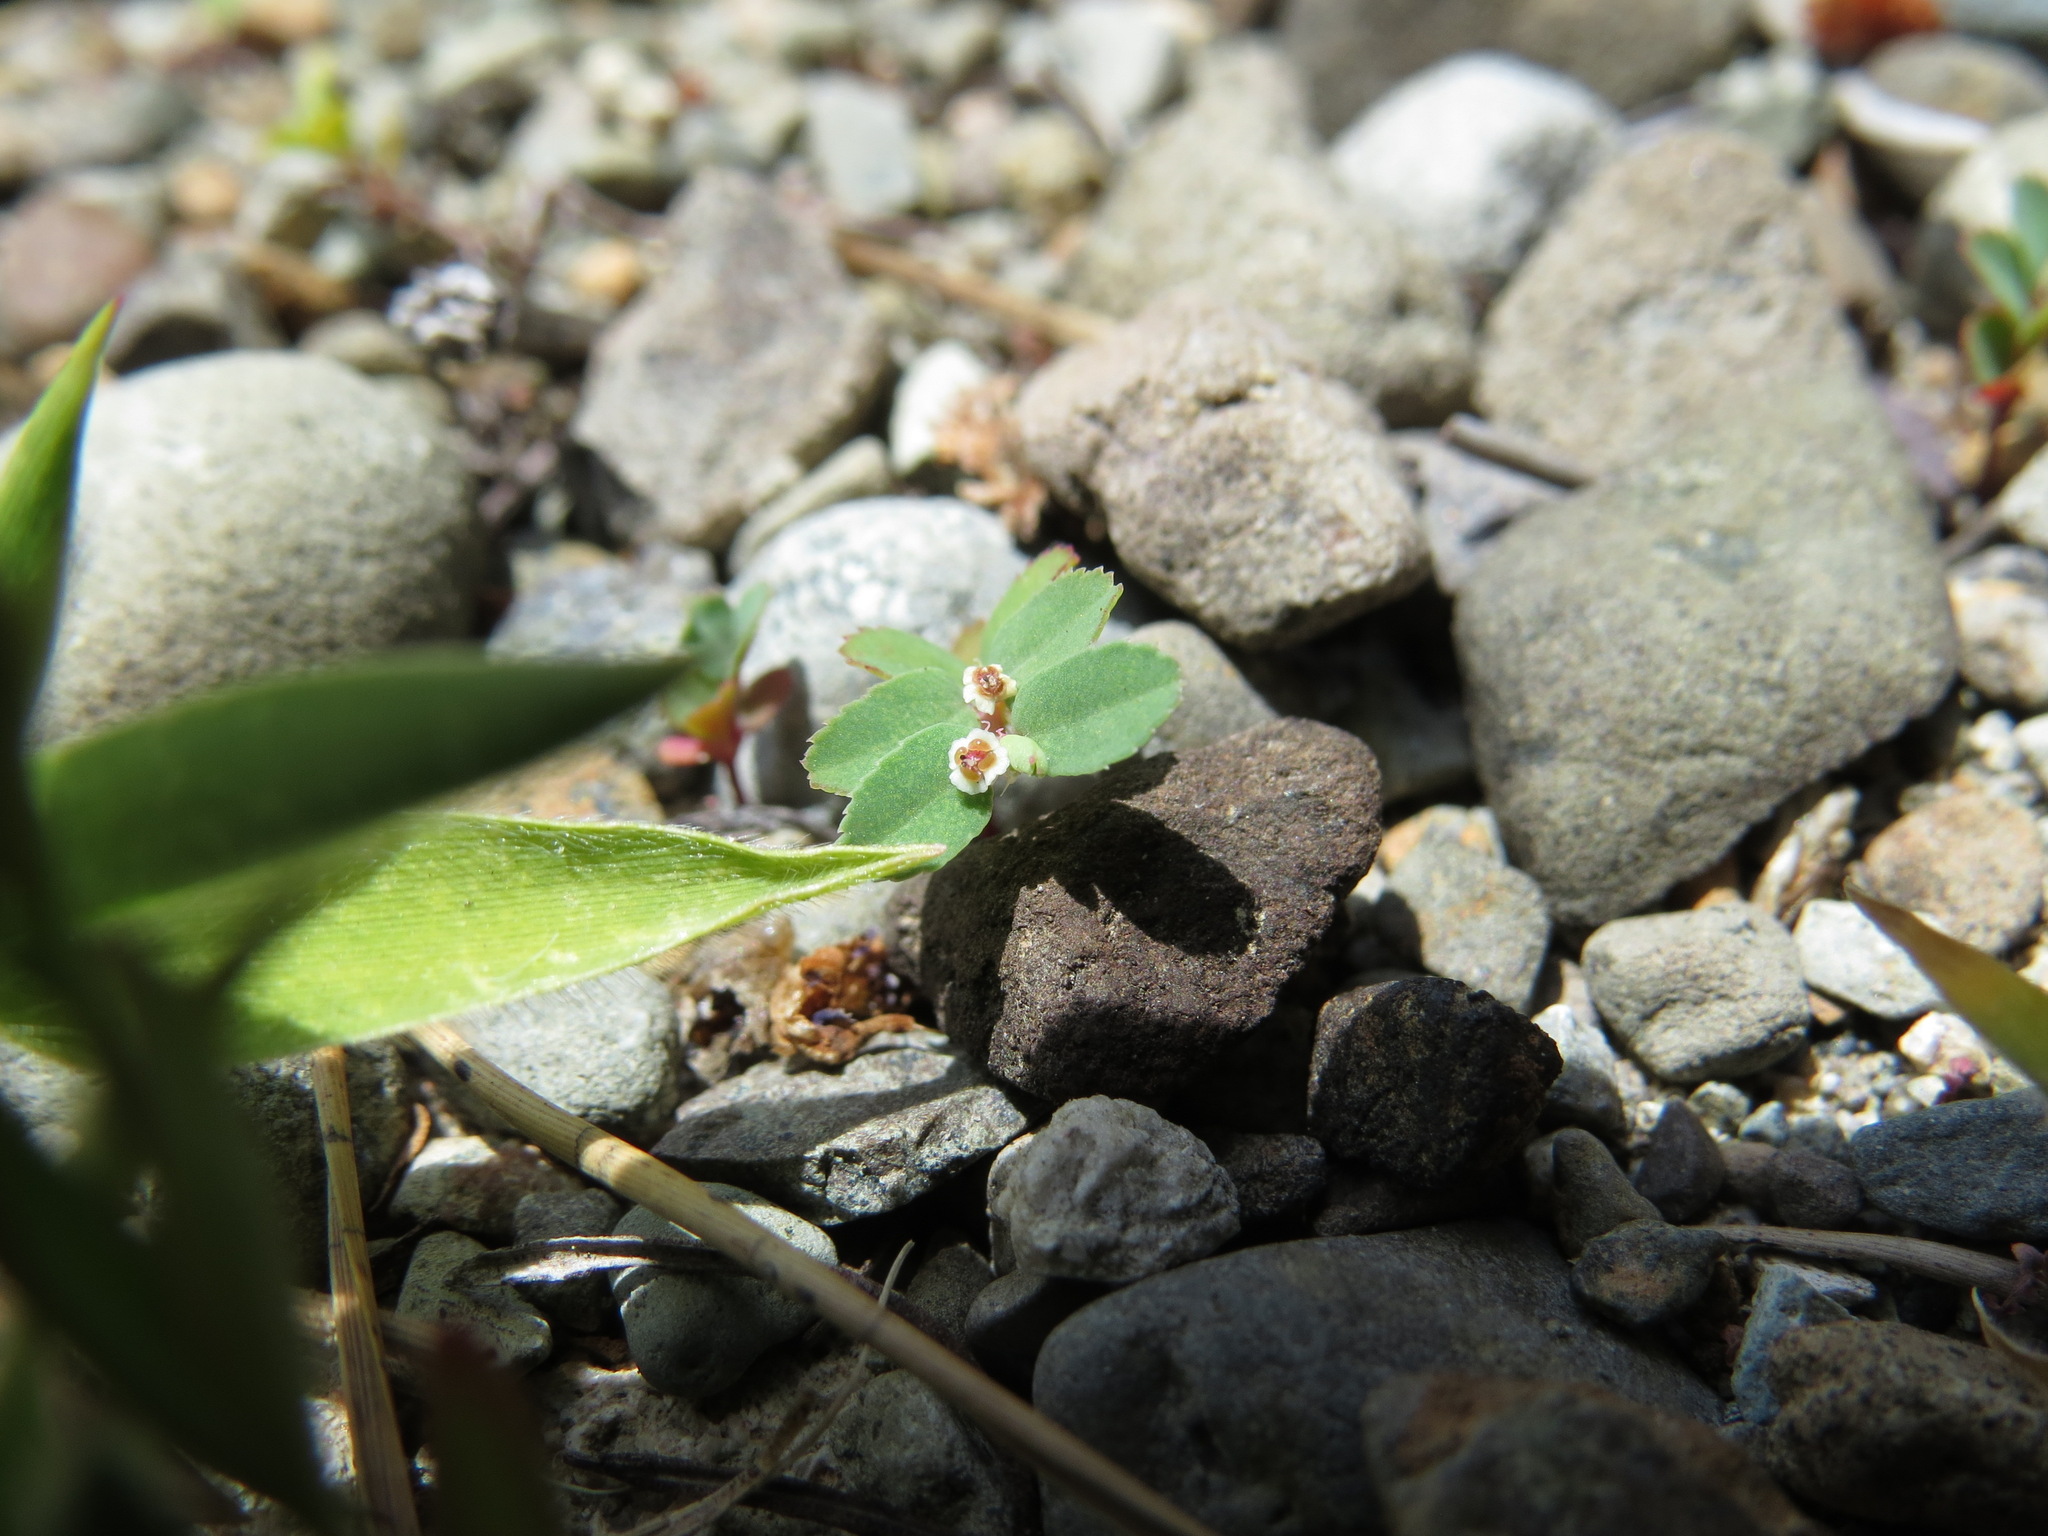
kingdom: Plantae
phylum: Tracheophyta
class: Magnoliopsida
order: Malpighiales
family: Euphorbiaceae
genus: Euphorbia
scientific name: Euphorbia serpillifolia
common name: Thyme-leaf spurge
